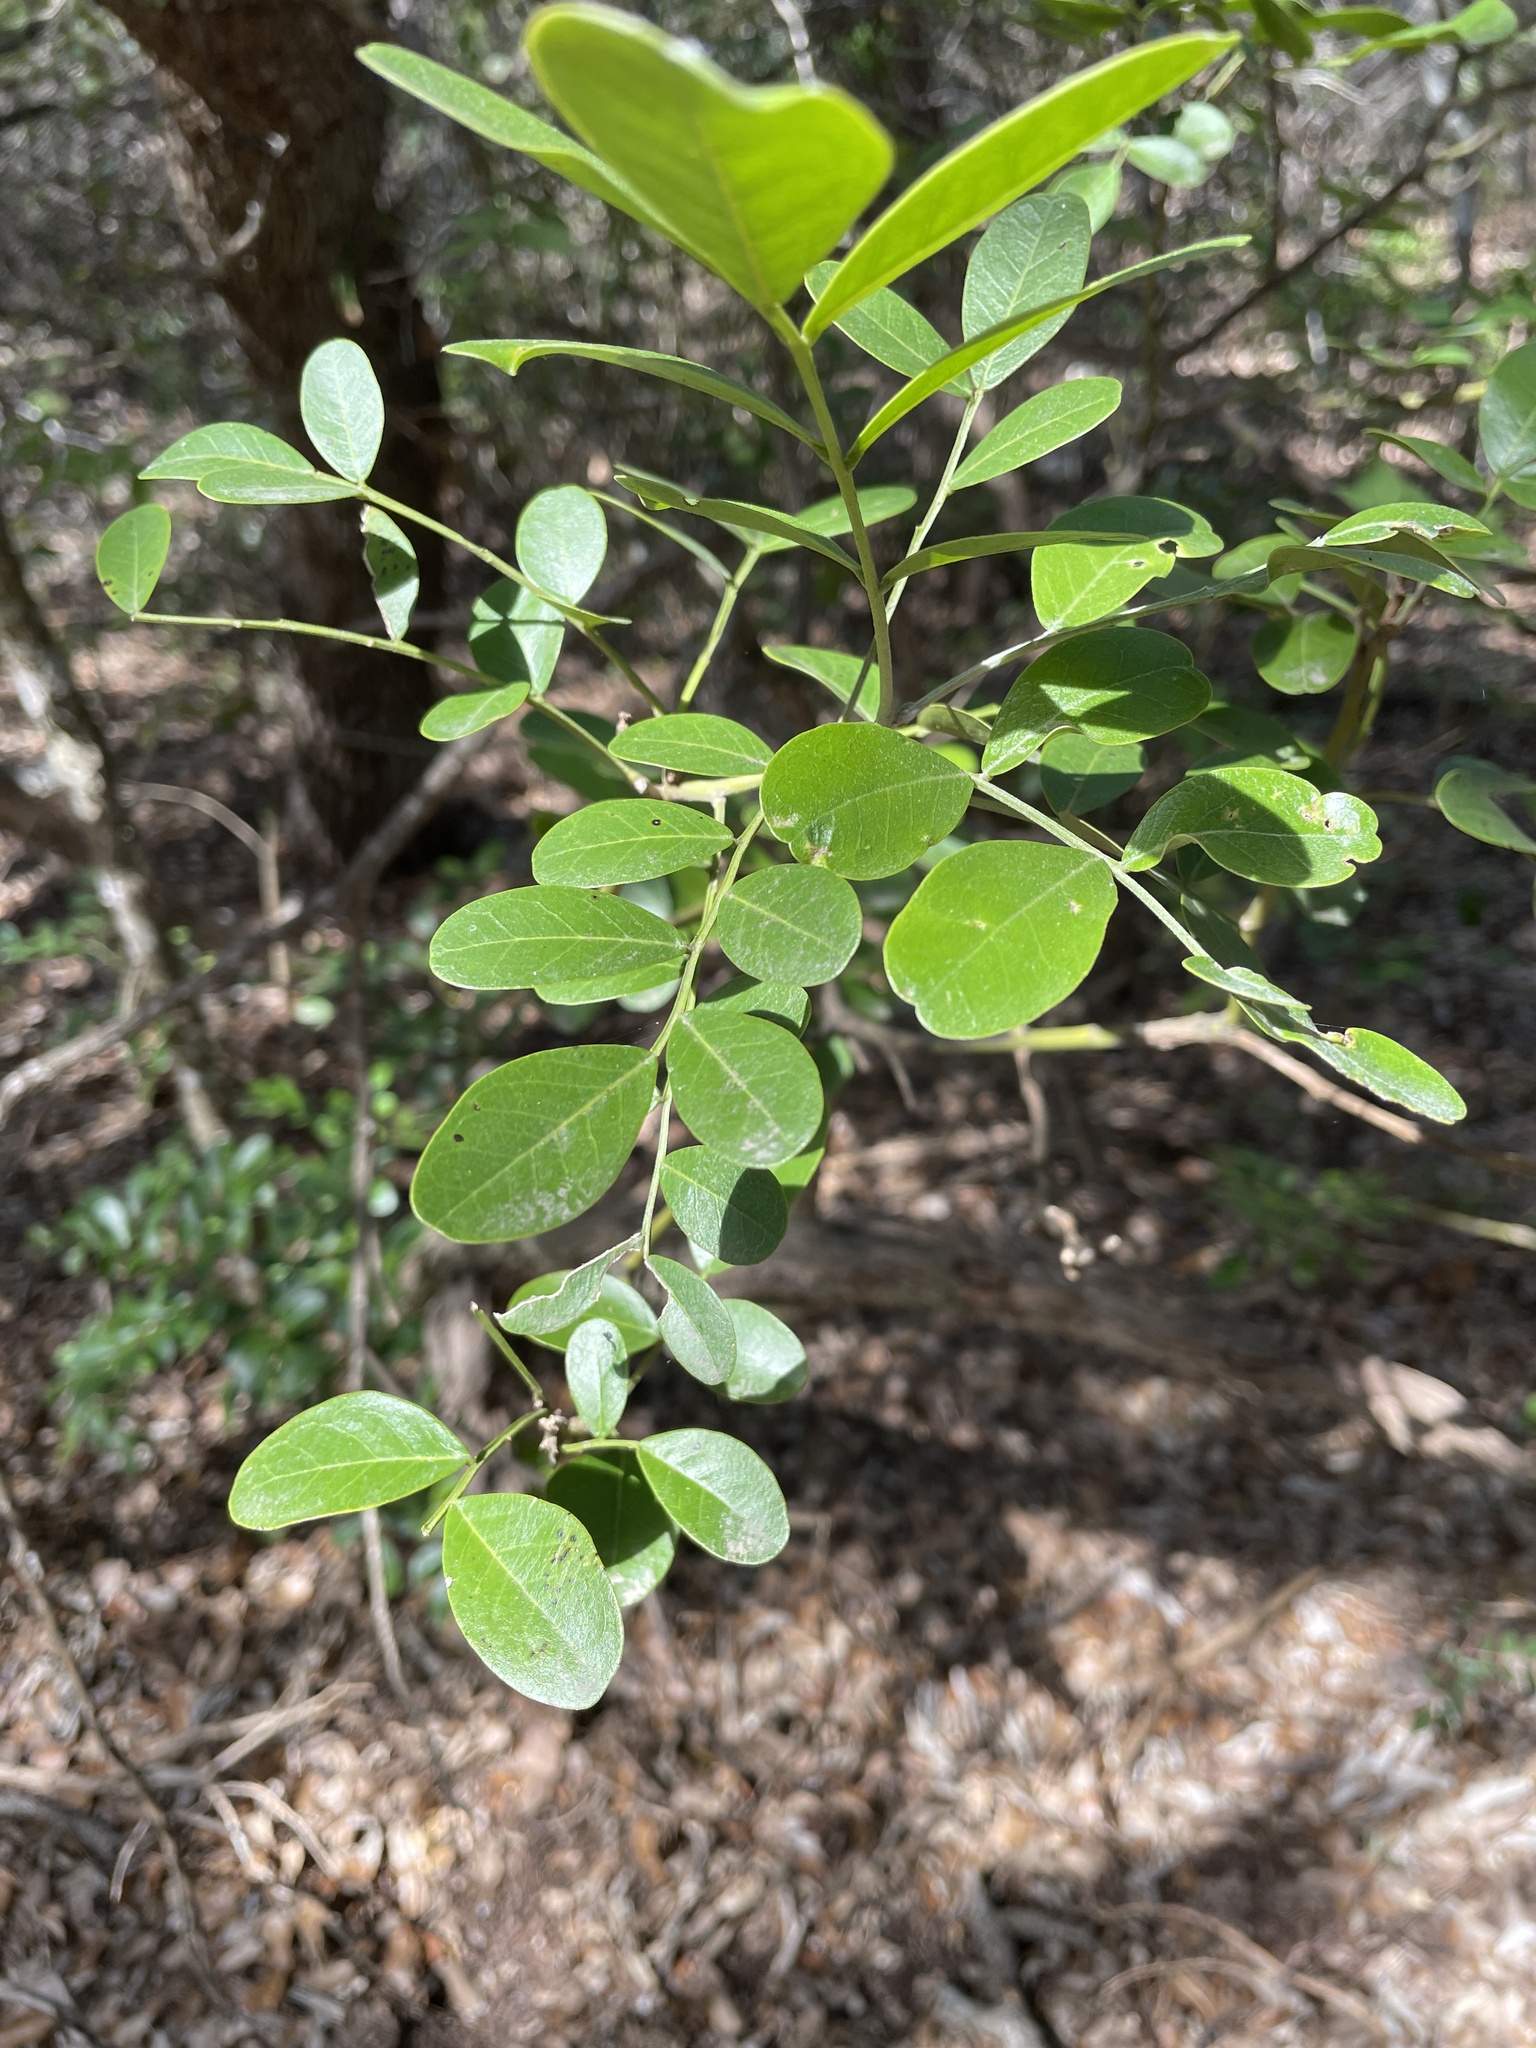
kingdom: Plantae
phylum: Tracheophyta
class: Magnoliopsida
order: Fabales
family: Fabaceae
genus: Dermatophyllum
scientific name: Dermatophyllum secundiflorum
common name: Texas-mountain-laurel
